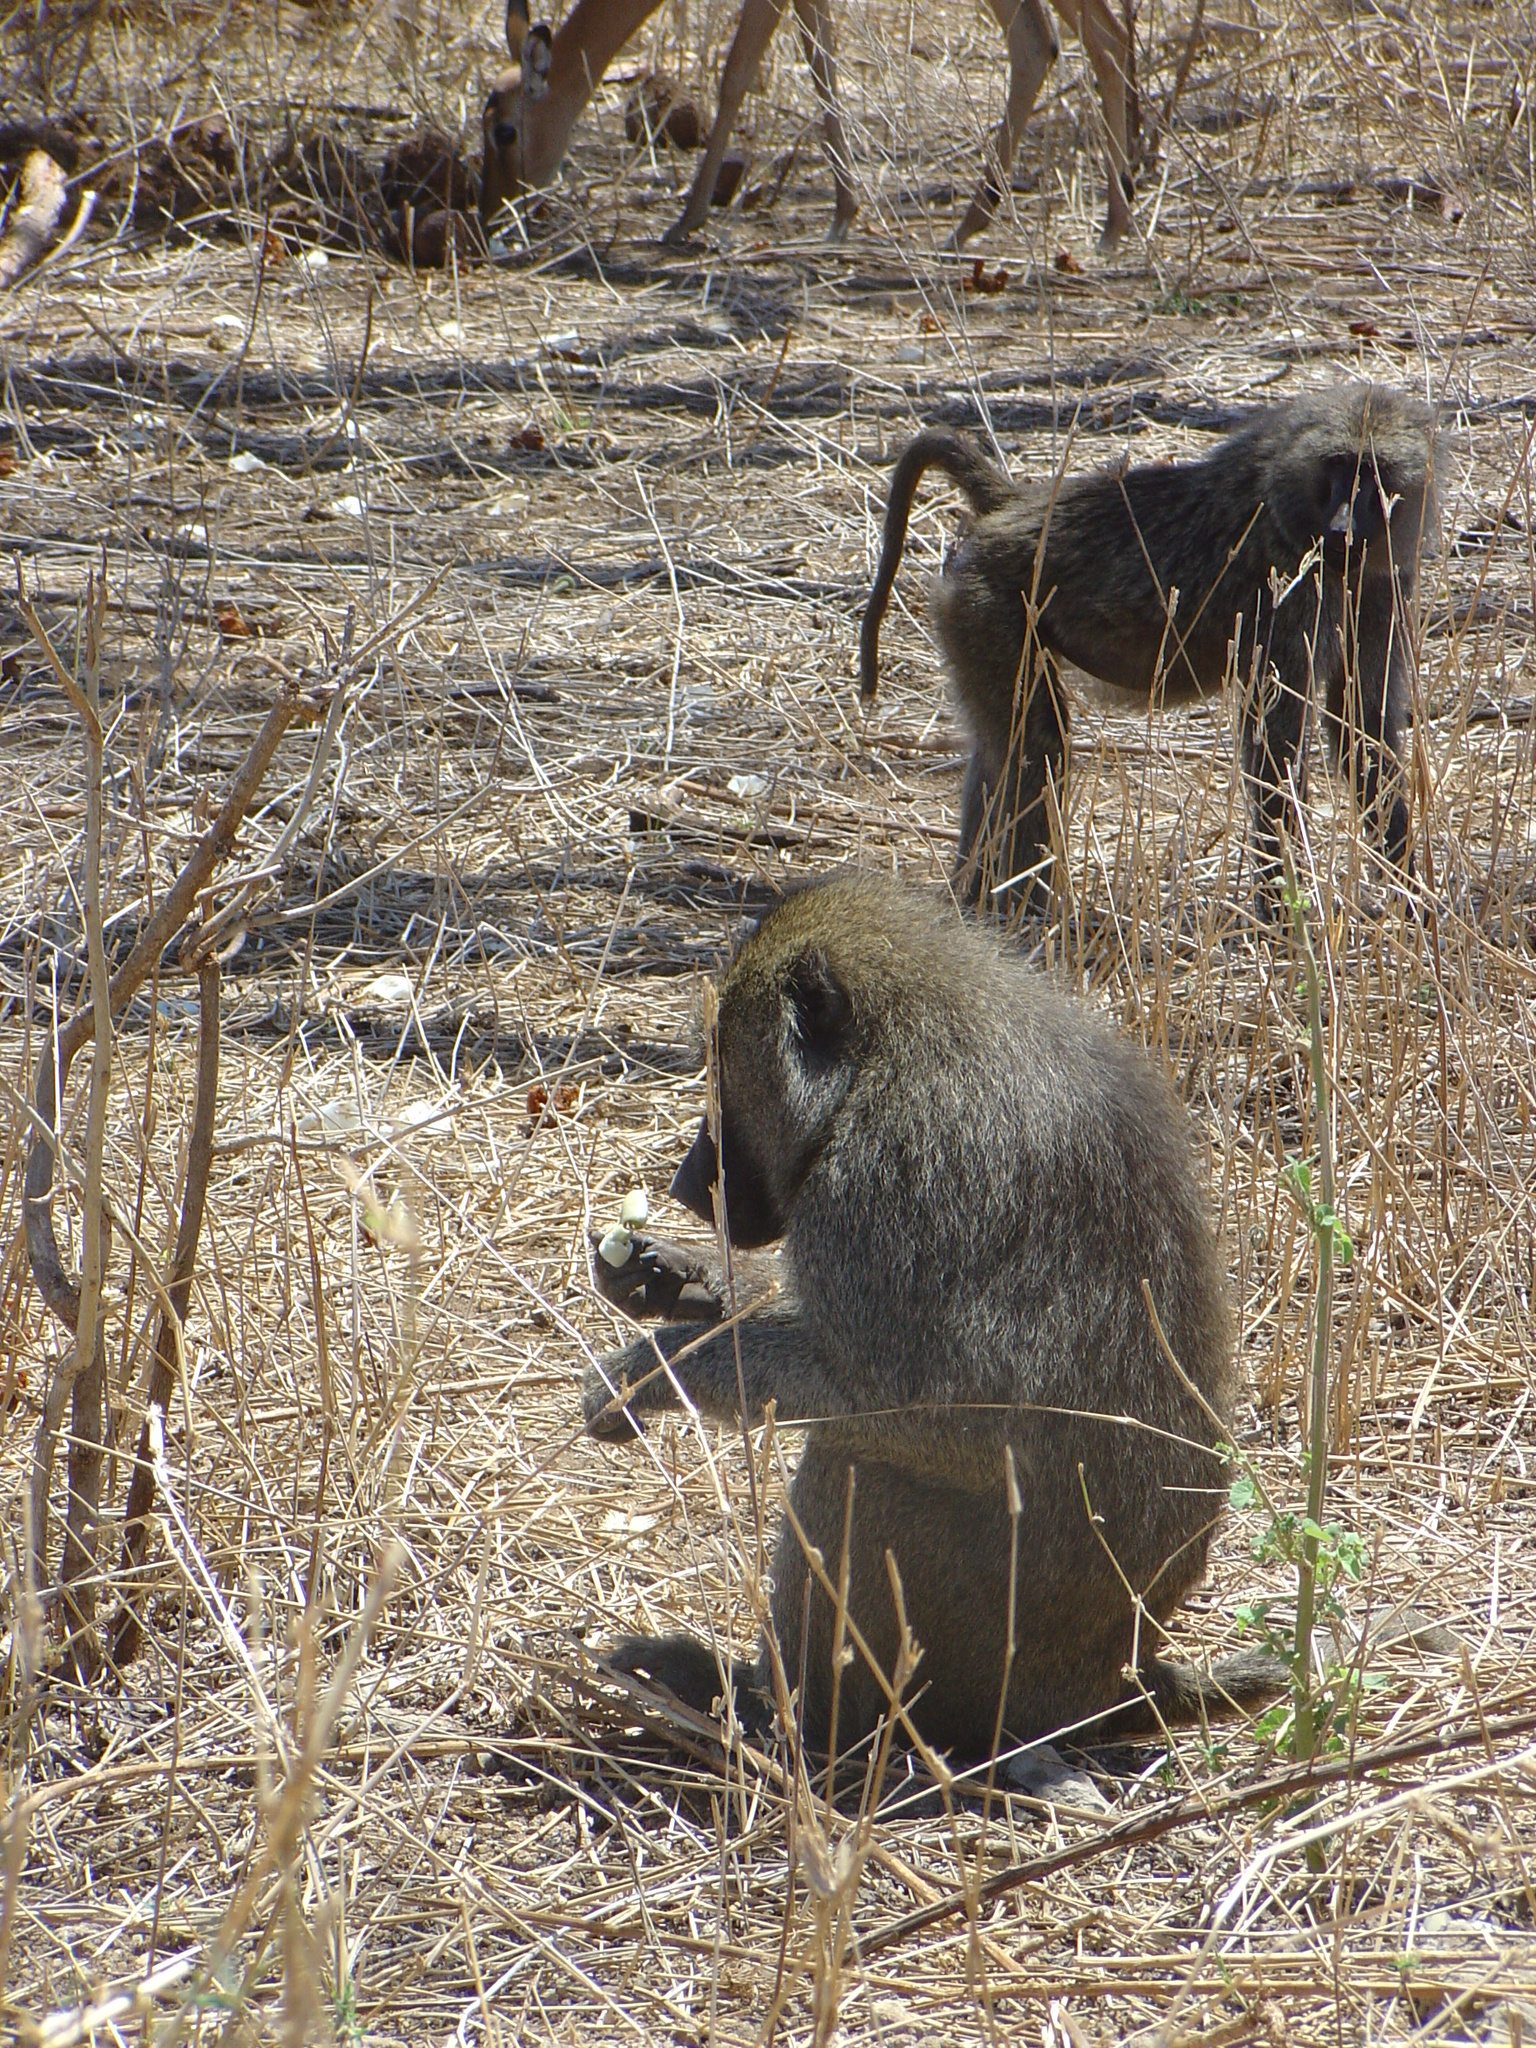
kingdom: Animalia
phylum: Chordata
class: Mammalia
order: Primates
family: Cercopithecidae
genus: Papio
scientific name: Papio anubis
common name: Olive baboon
